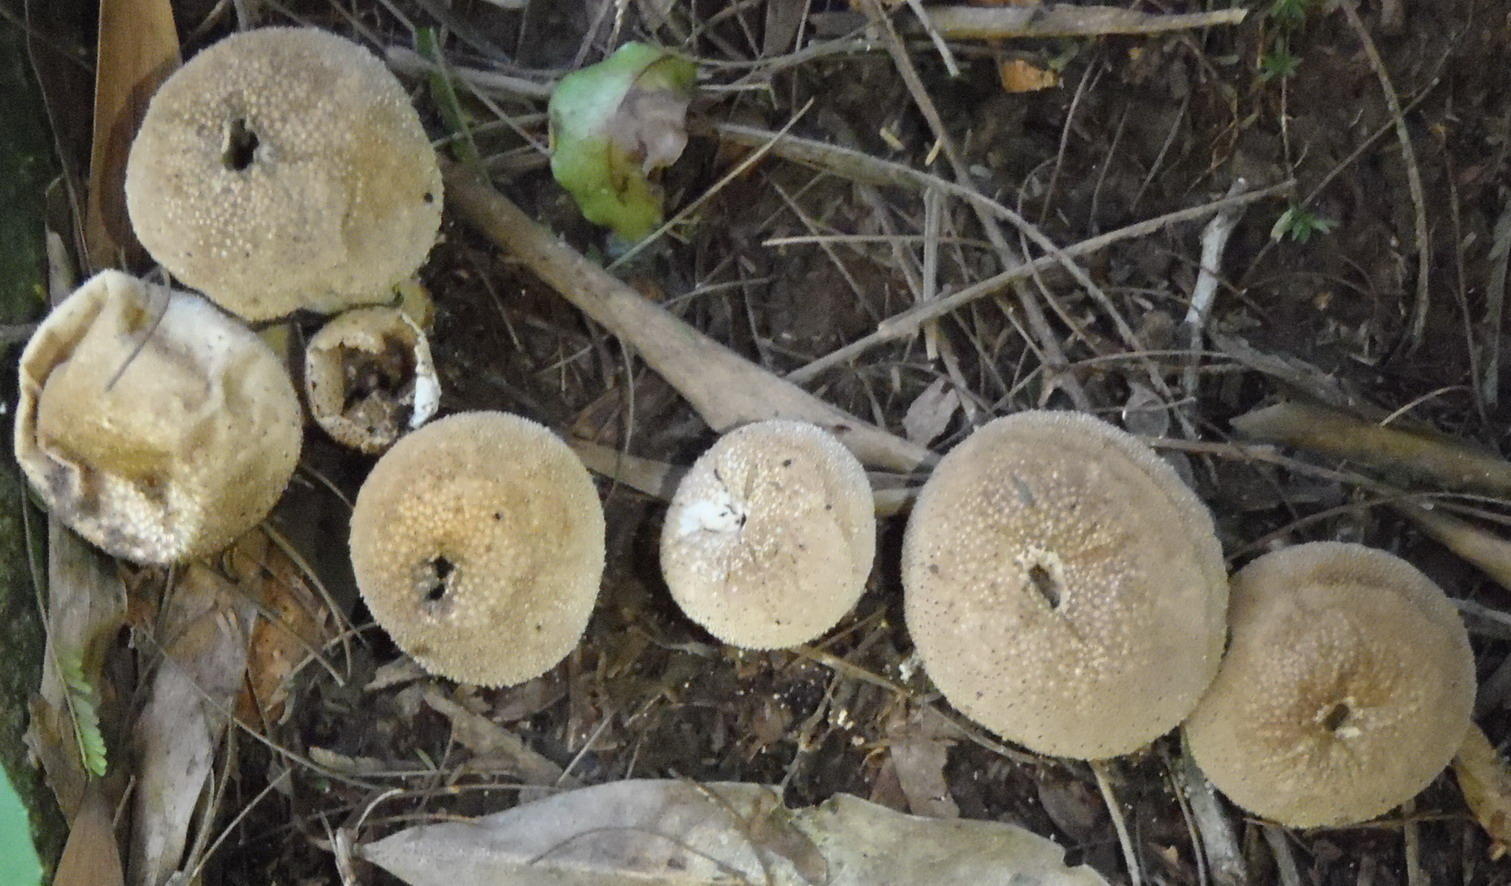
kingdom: Fungi
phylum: Basidiomycota
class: Agaricomycetes
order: Agaricales
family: Lycoperdaceae
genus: Lycoperdon
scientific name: Lycoperdon pratense
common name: Meadow puffball
